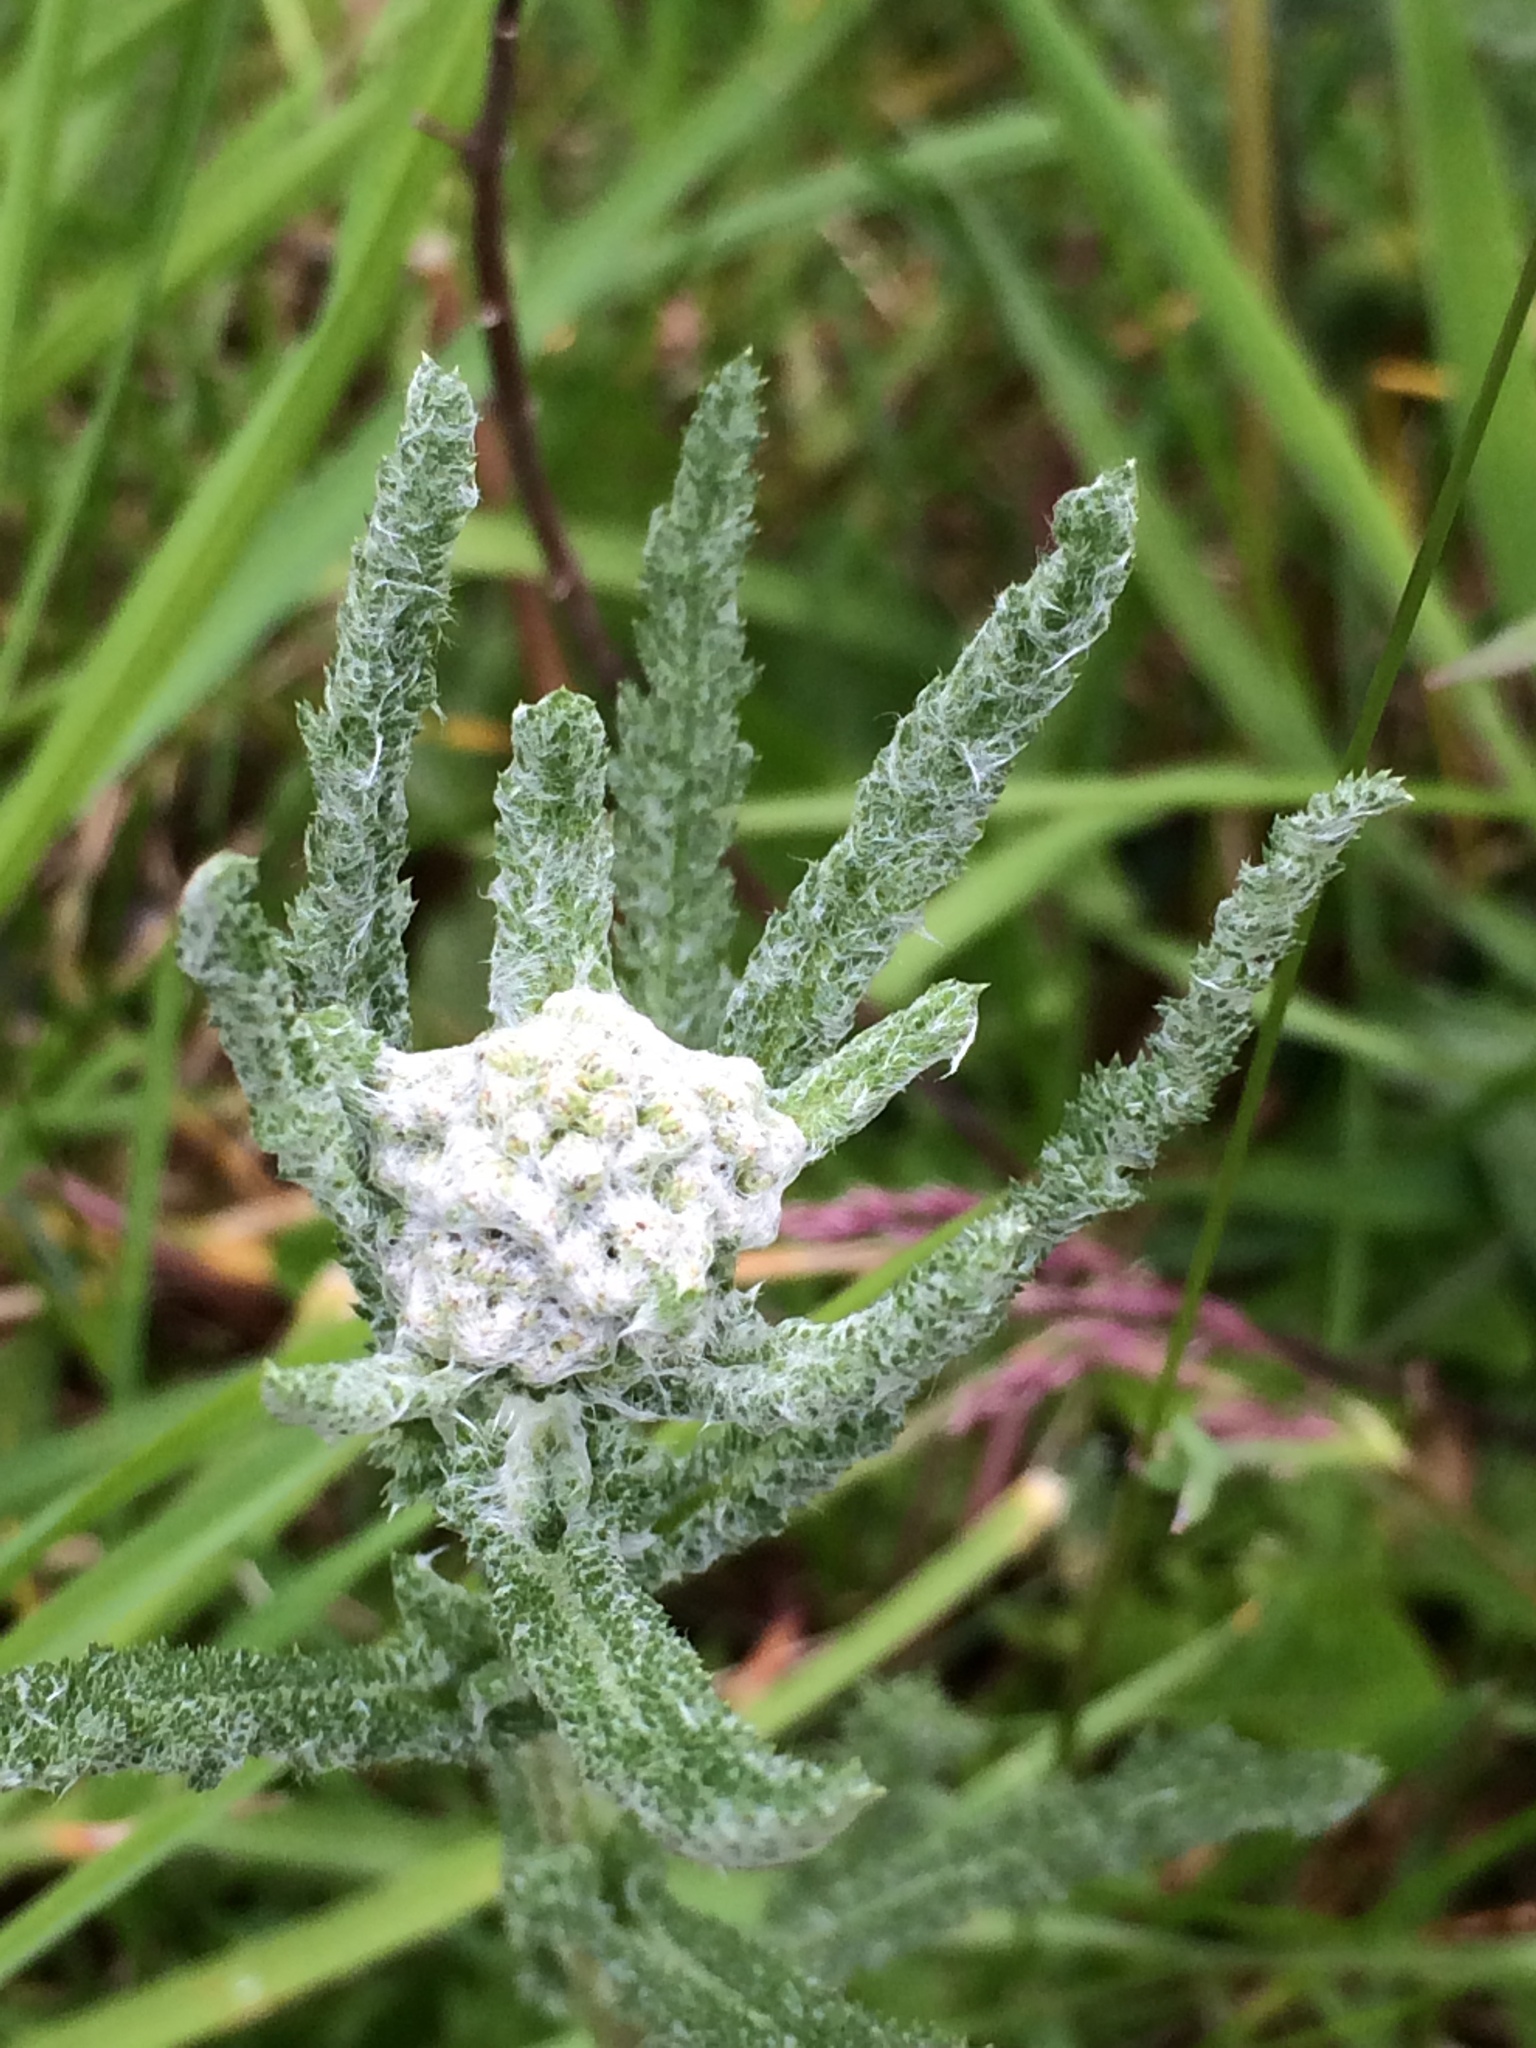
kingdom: Plantae
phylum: Tracheophyta
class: Magnoliopsida
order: Asterales
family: Asteraceae
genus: Achillea
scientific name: Achillea millefolium
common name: Yarrow
